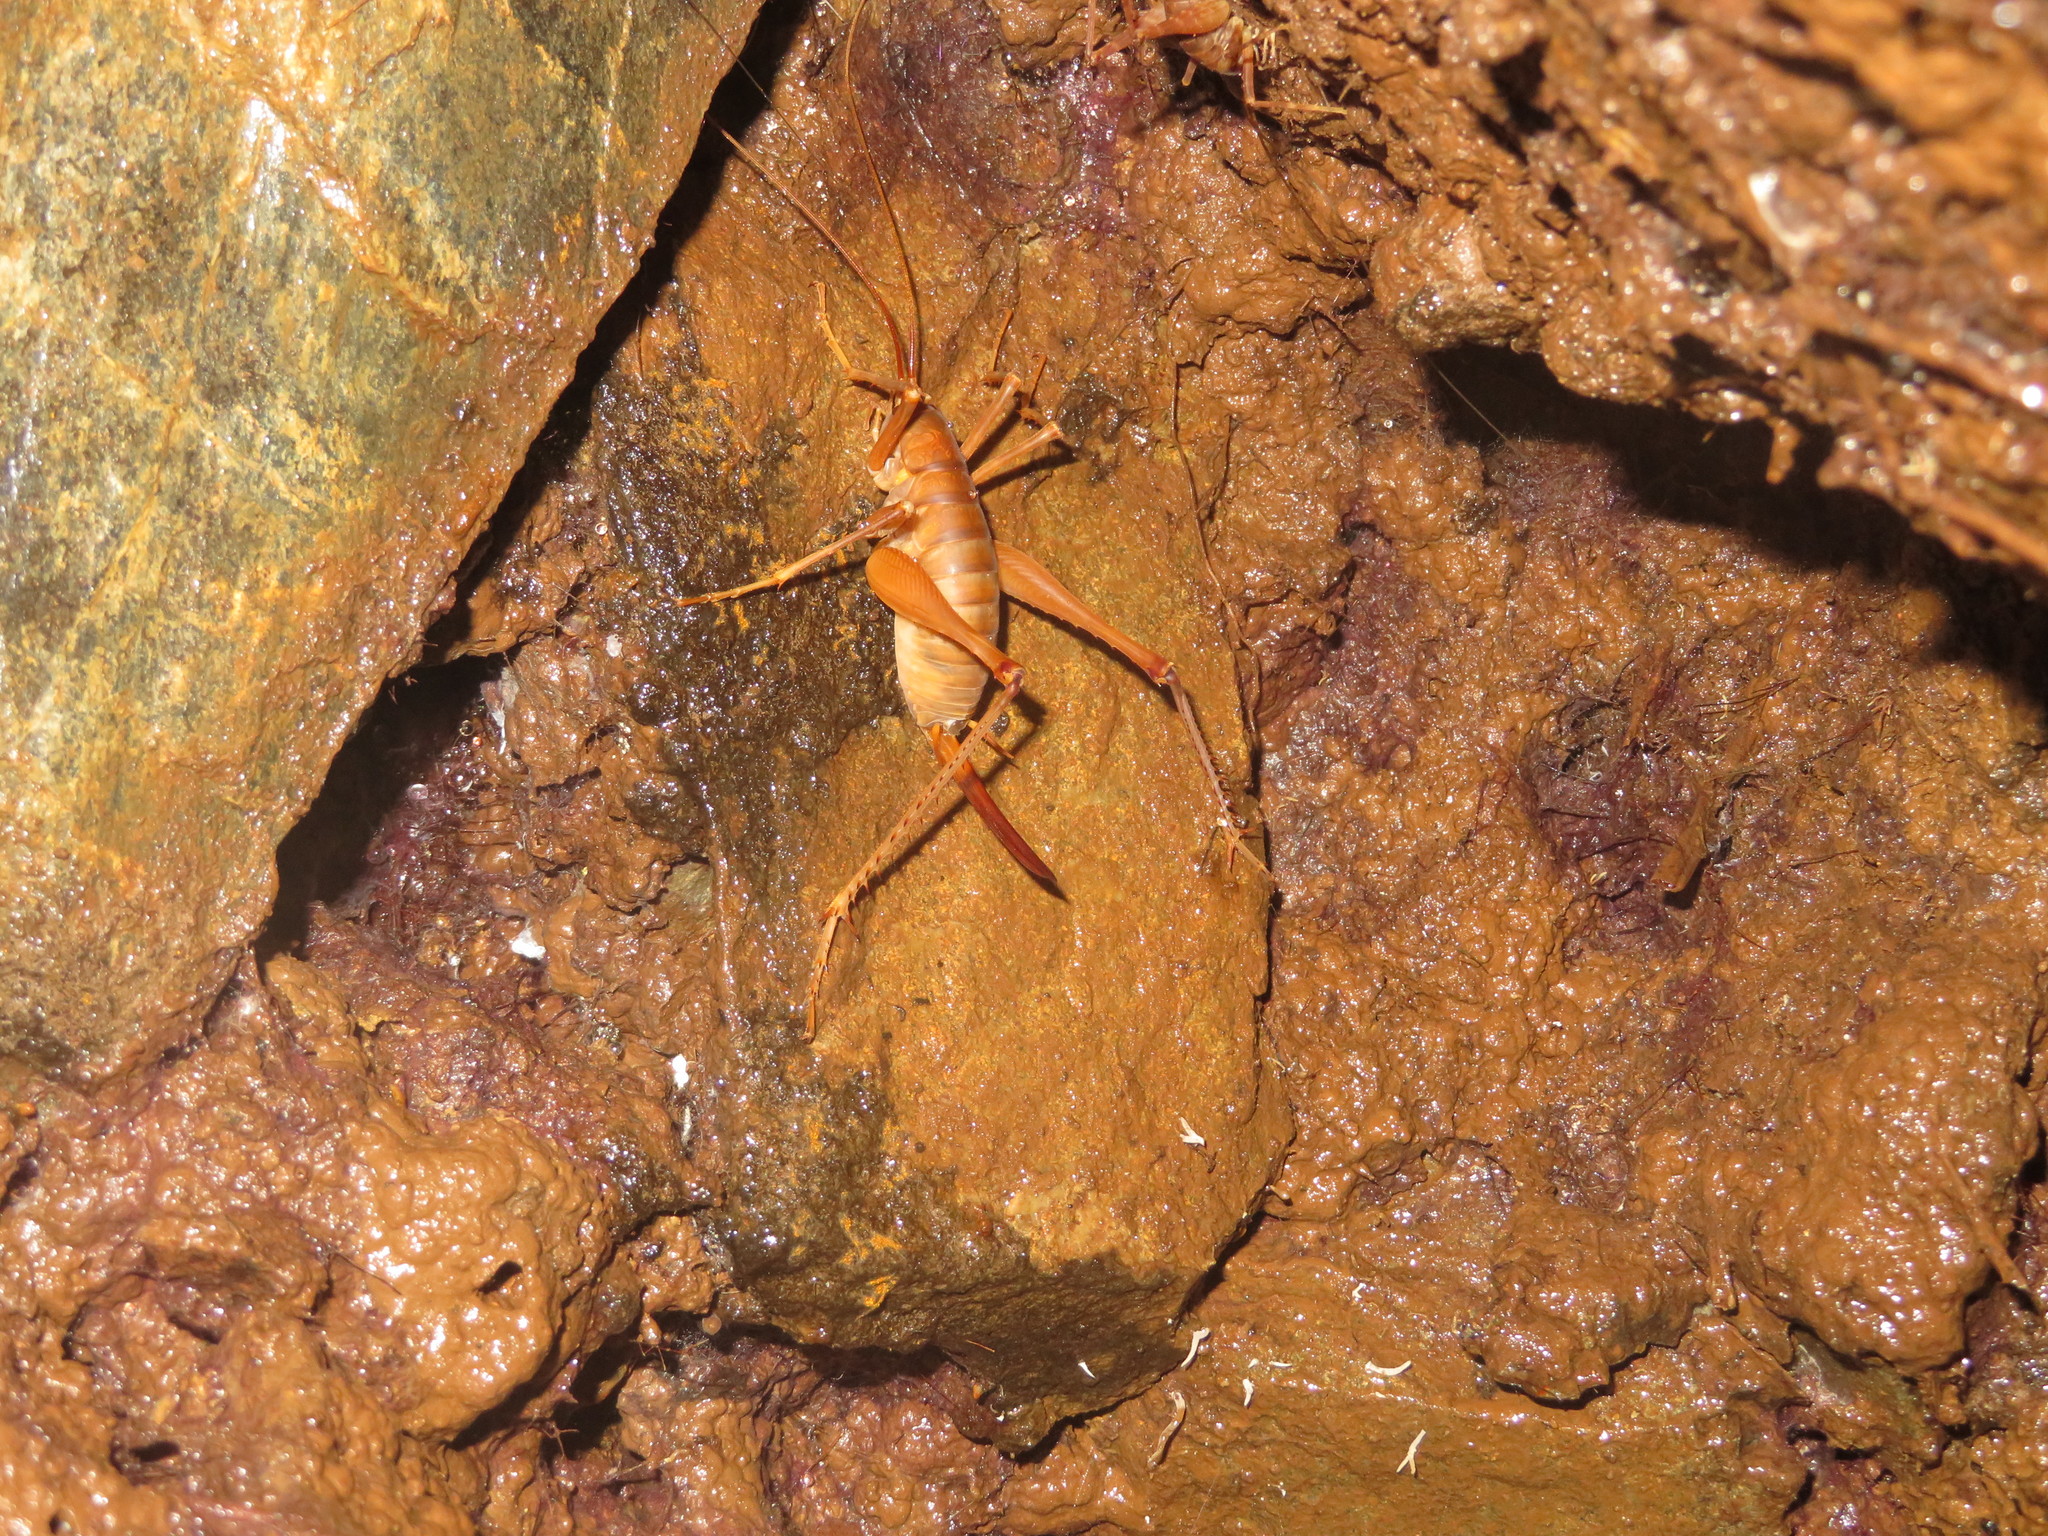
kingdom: Animalia
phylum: Arthropoda
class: Insecta
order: Orthoptera
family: Rhaphidophoridae
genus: Pachyrhamma
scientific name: Pachyrhamma delli
